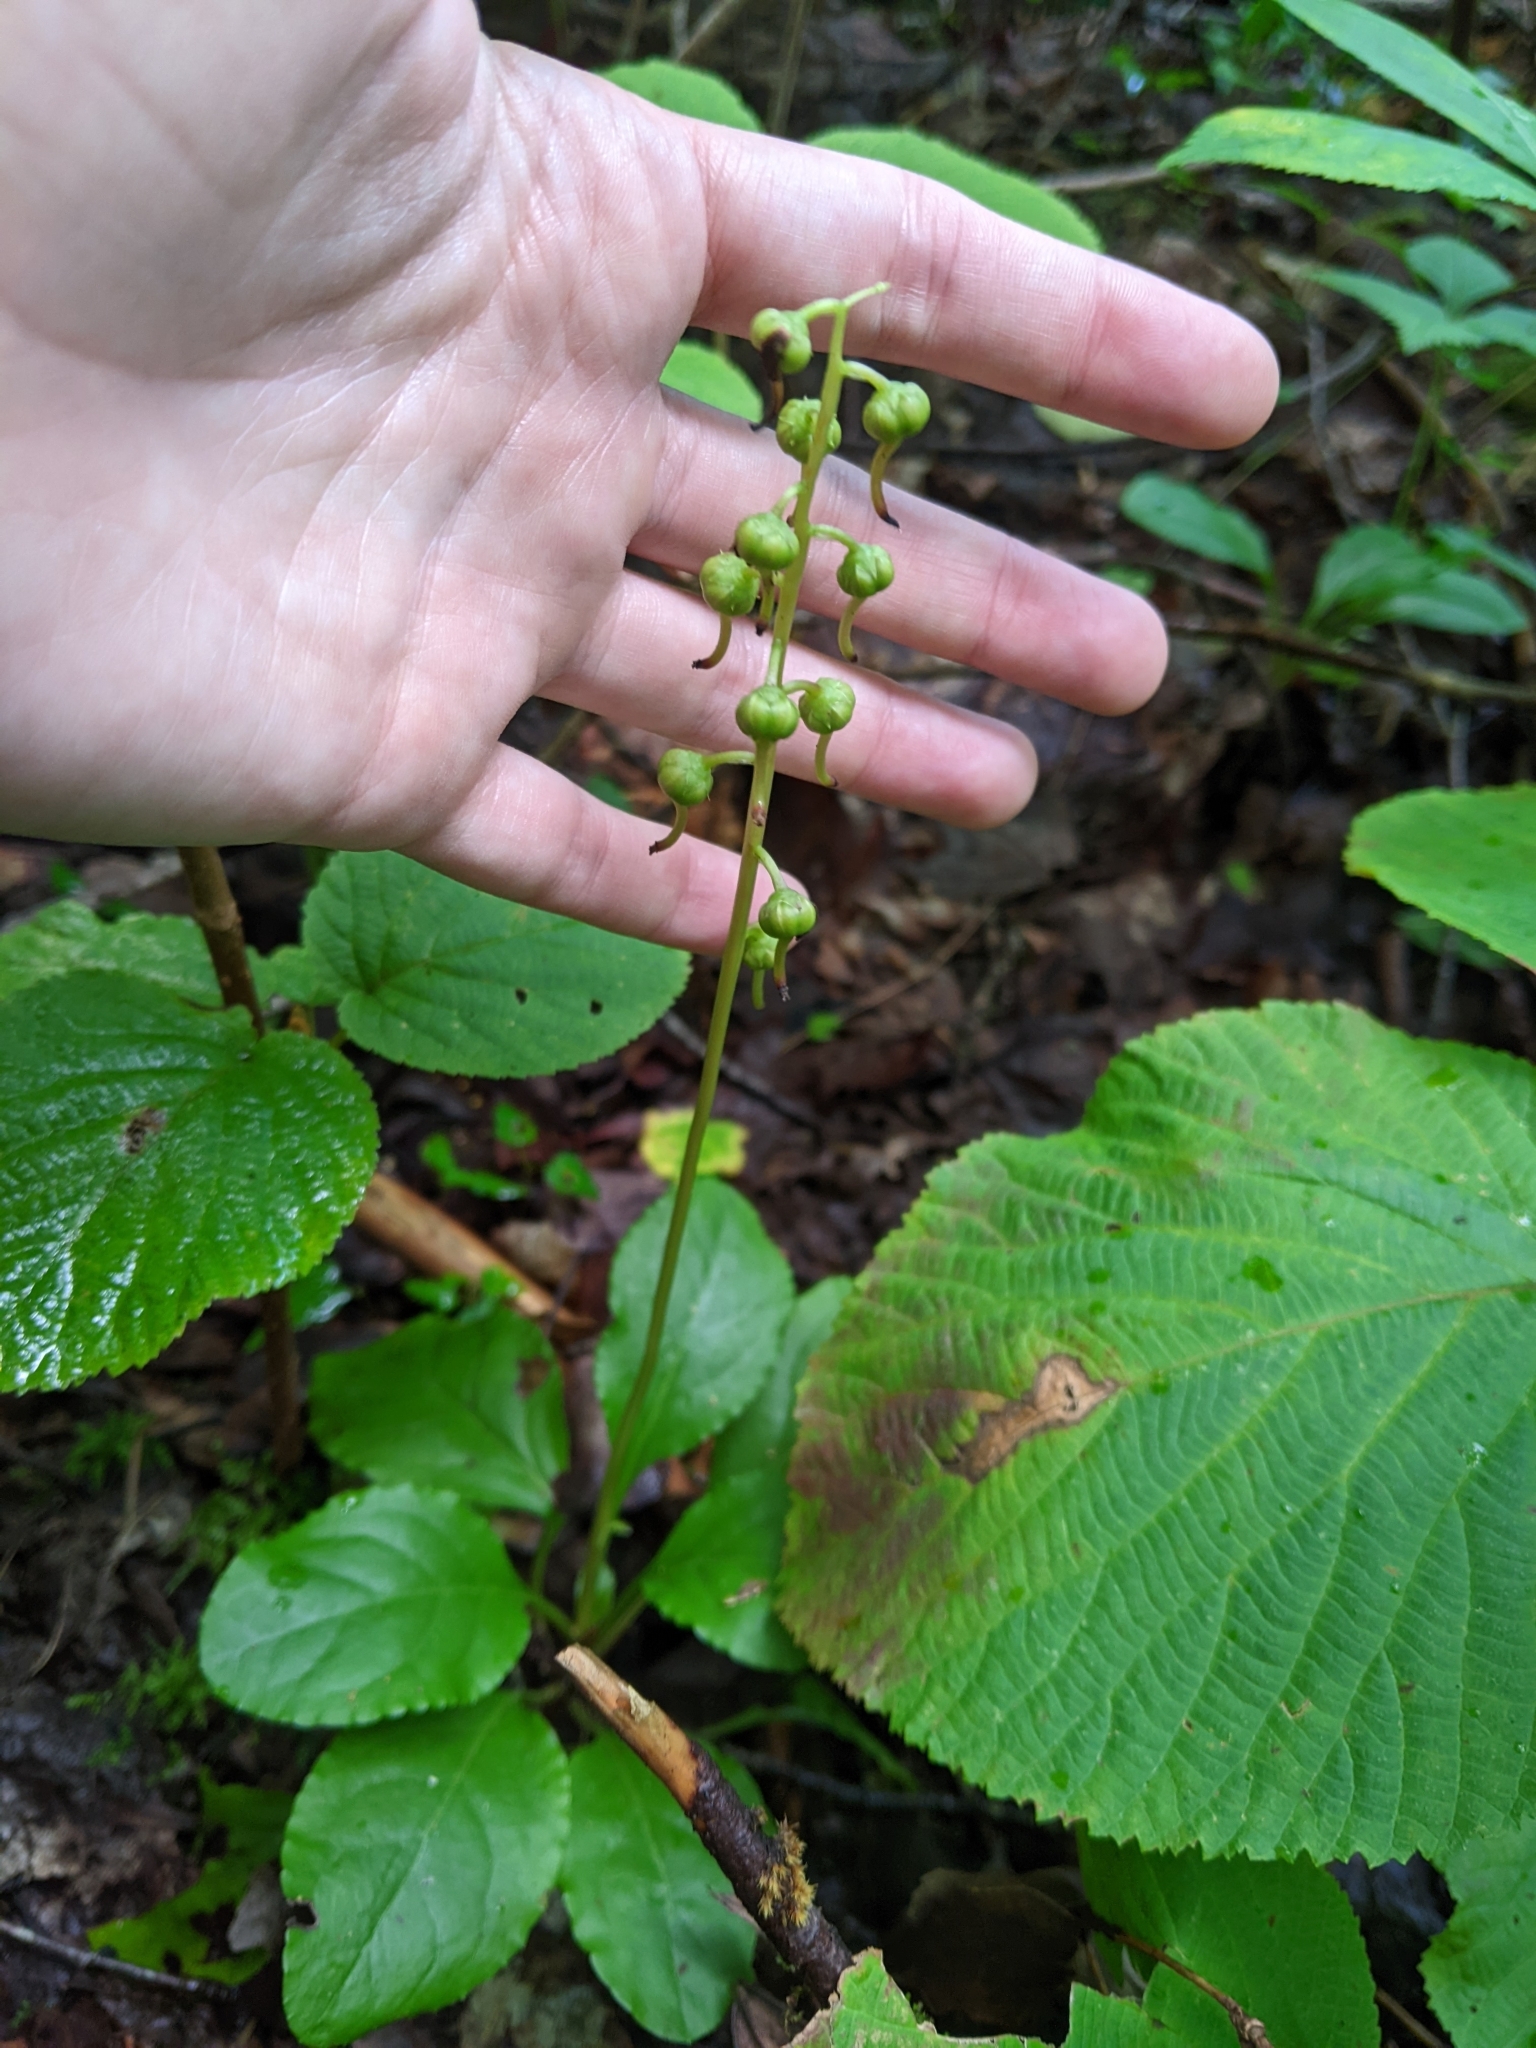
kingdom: Plantae
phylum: Tracheophyta
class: Magnoliopsida
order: Ericales
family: Ericaceae
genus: Pyrola
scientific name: Pyrola elliptica
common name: Shinleaf
